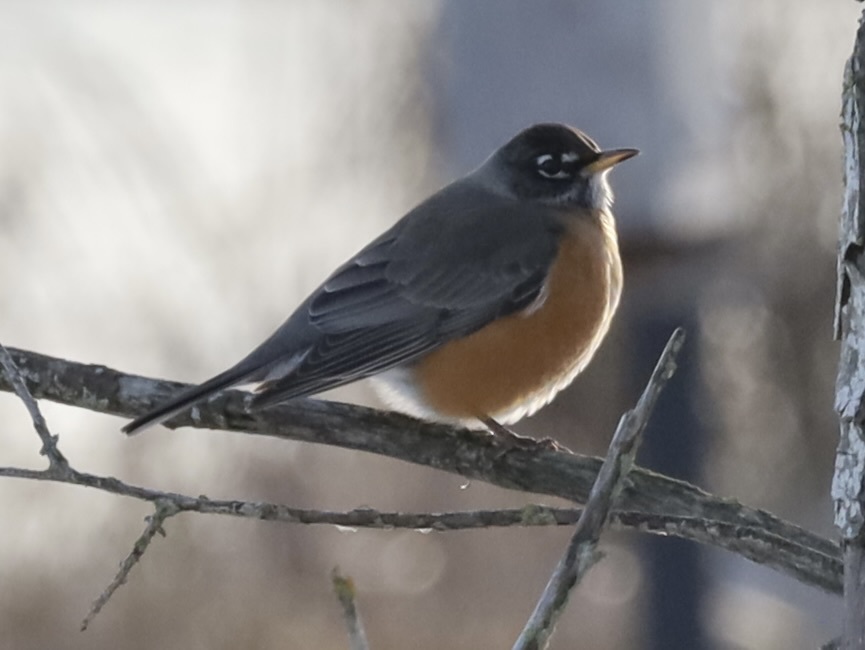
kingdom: Animalia
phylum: Chordata
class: Aves
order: Passeriformes
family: Turdidae
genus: Turdus
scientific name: Turdus migratorius
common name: American robin
